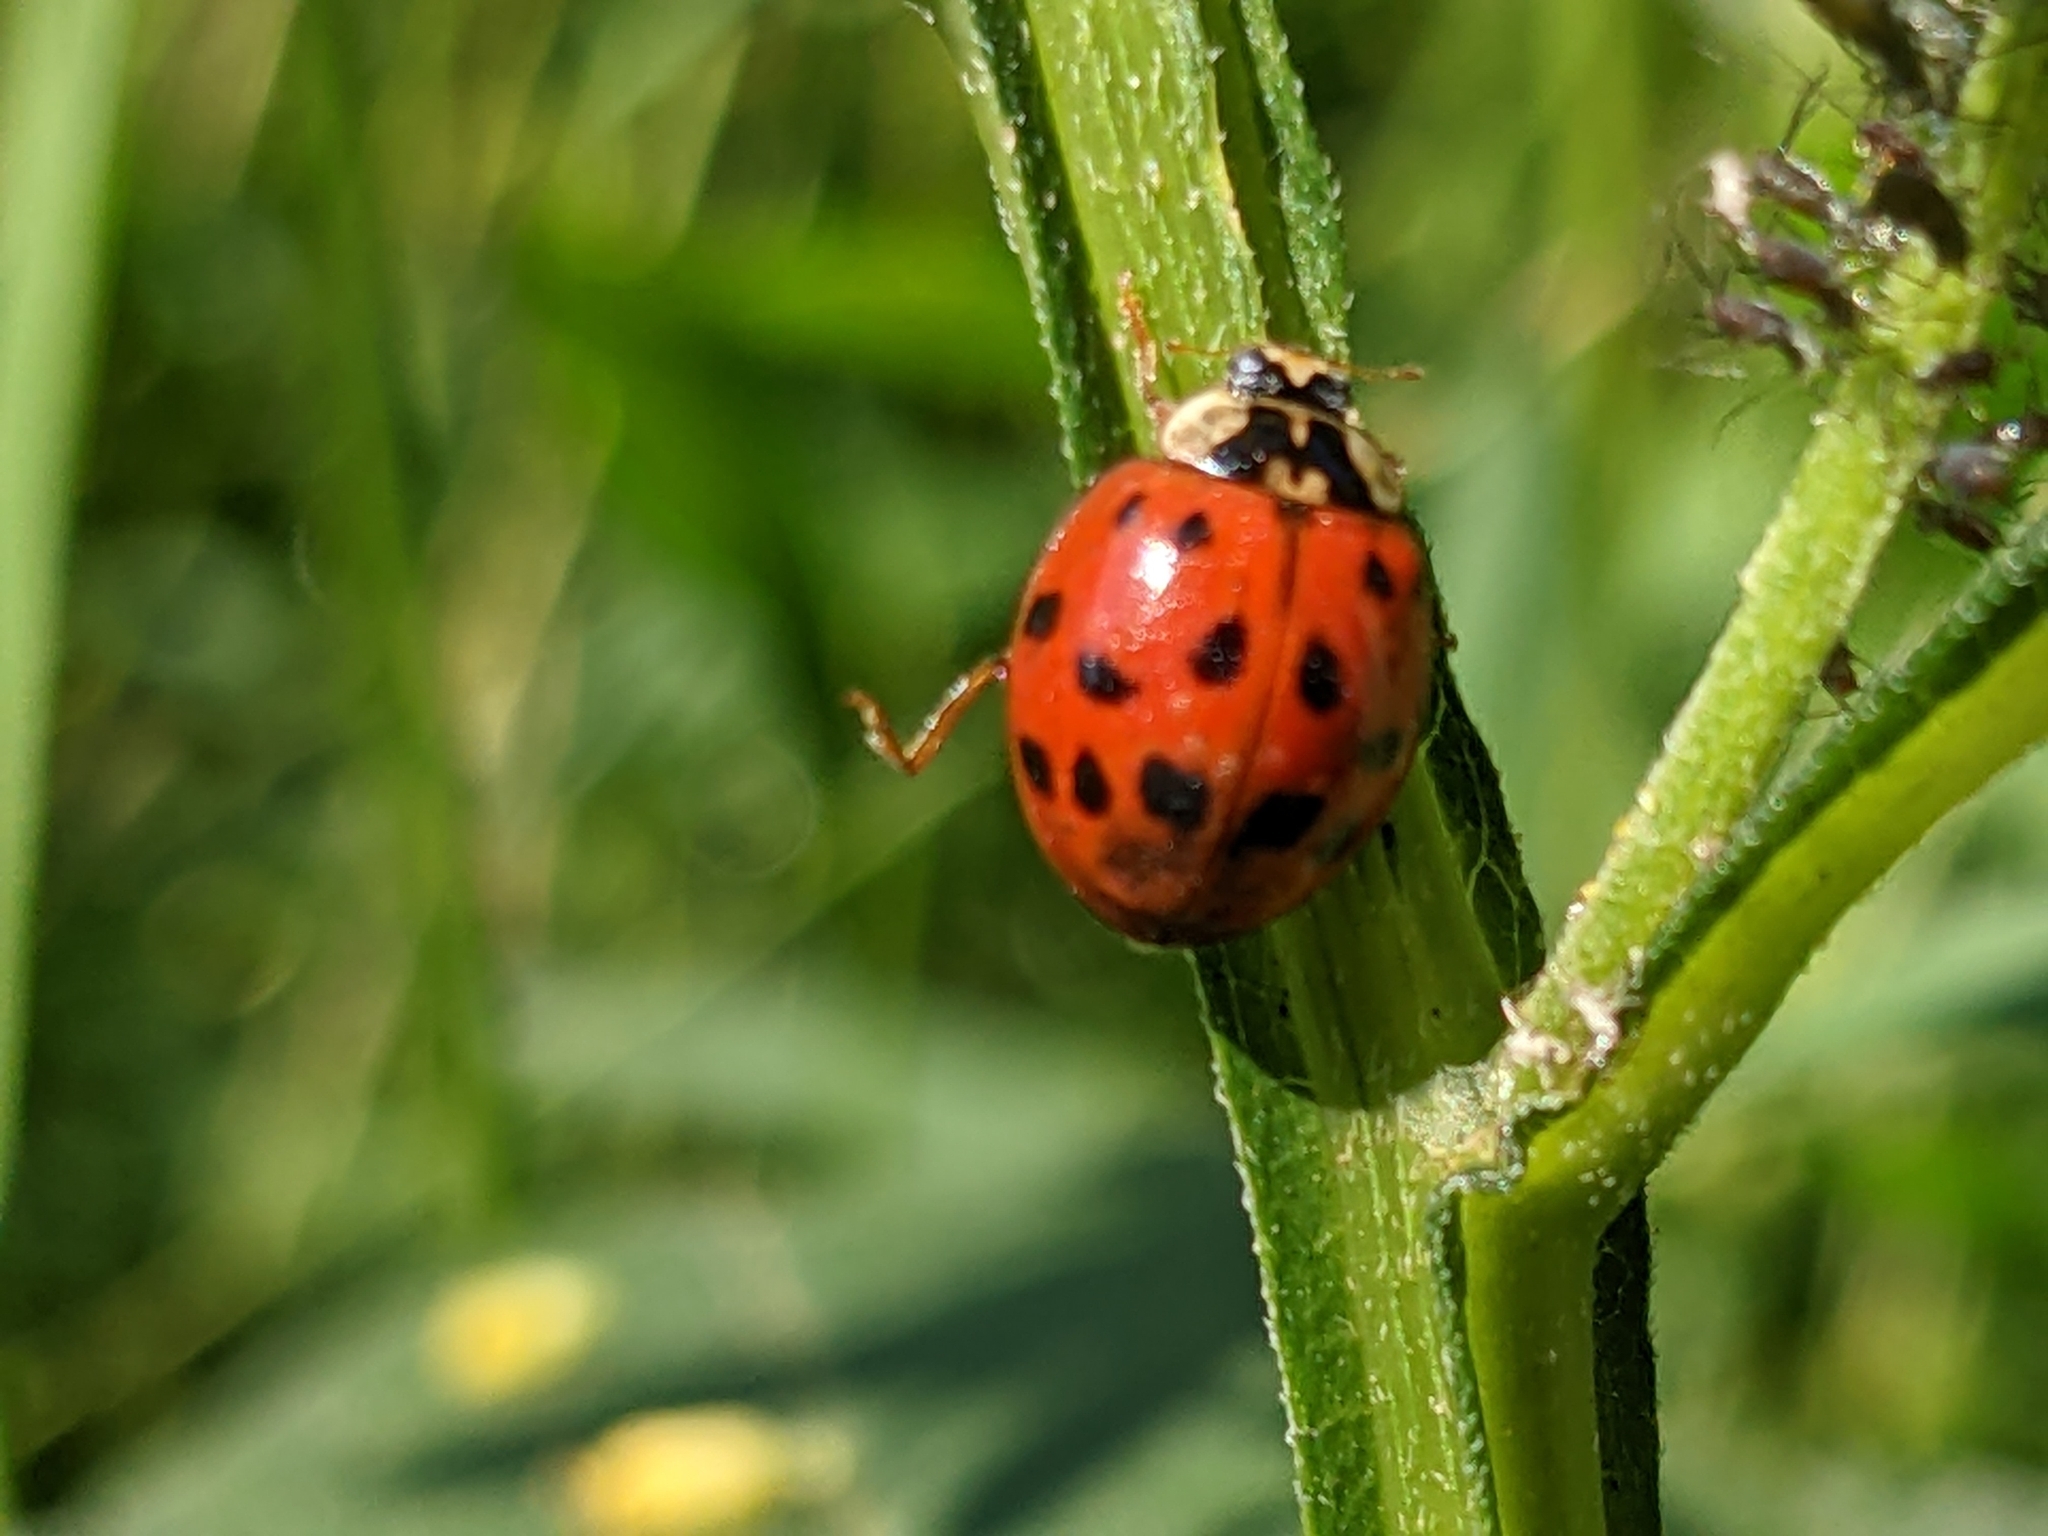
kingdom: Animalia
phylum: Arthropoda
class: Insecta
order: Coleoptera
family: Coccinellidae
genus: Harmonia
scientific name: Harmonia axyridis
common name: Harlequin ladybird
